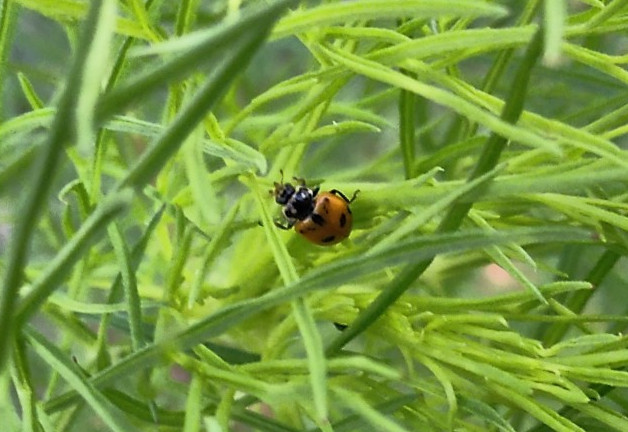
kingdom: Animalia
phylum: Arthropoda
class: Insecta
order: Coleoptera
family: Coccinellidae
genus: Hippodamia
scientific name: Hippodamia variegata
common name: Ladybird beetle
